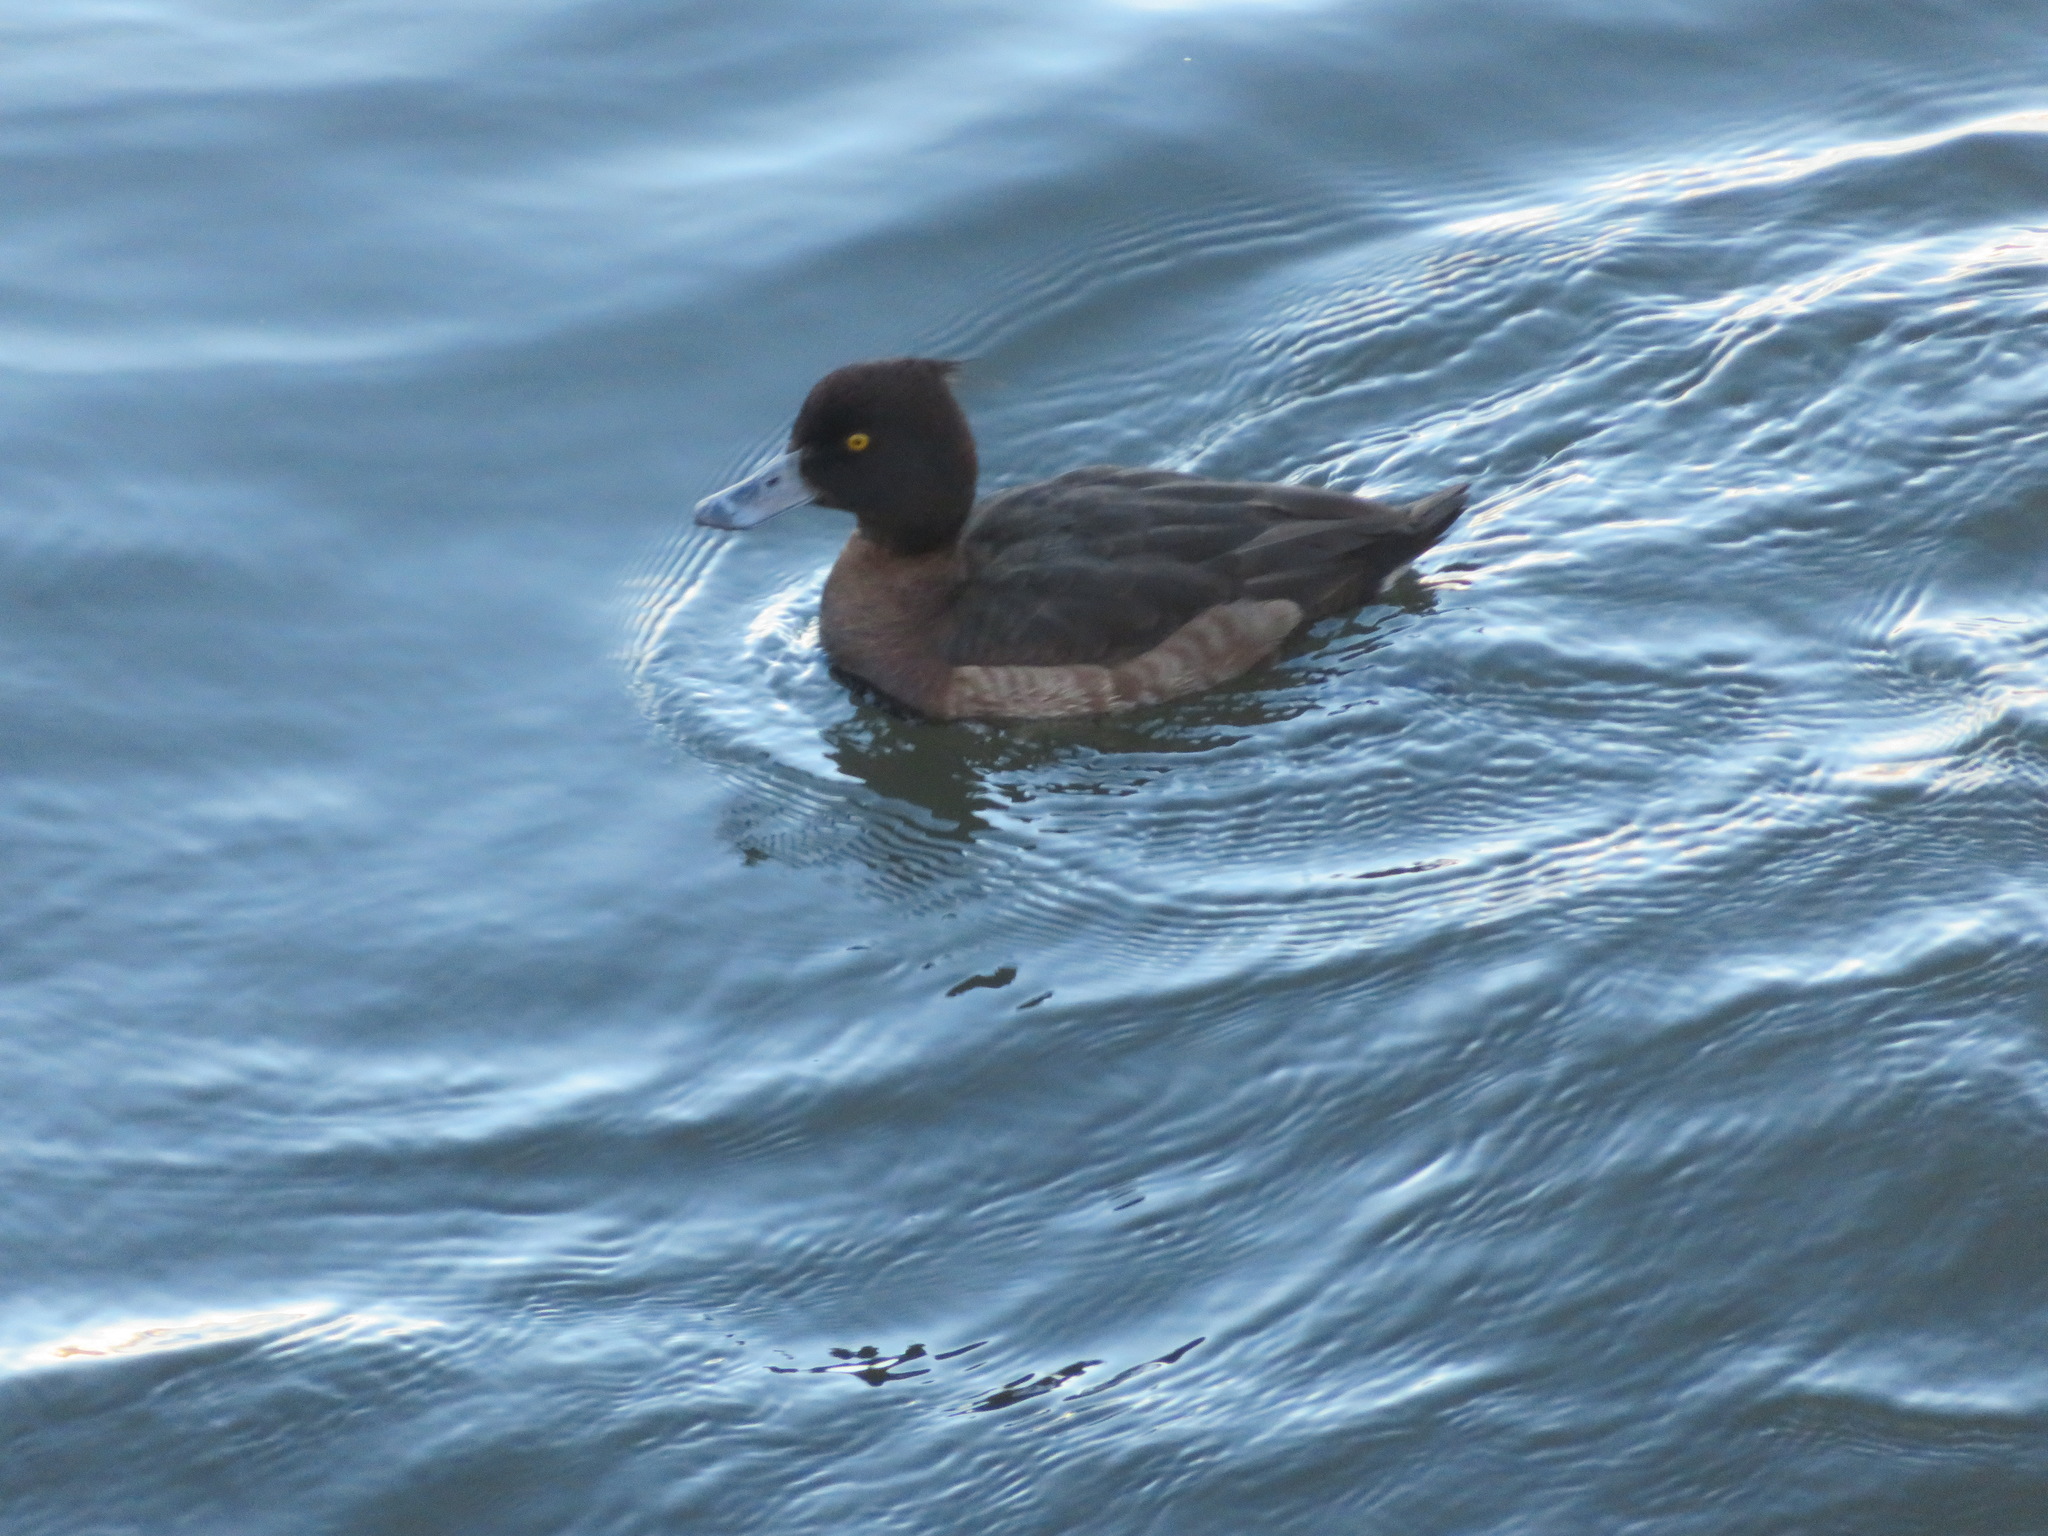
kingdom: Animalia
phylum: Chordata
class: Aves
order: Anseriformes
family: Anatidae
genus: Aythya
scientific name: Aythya fuligula
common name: Tufted duck
